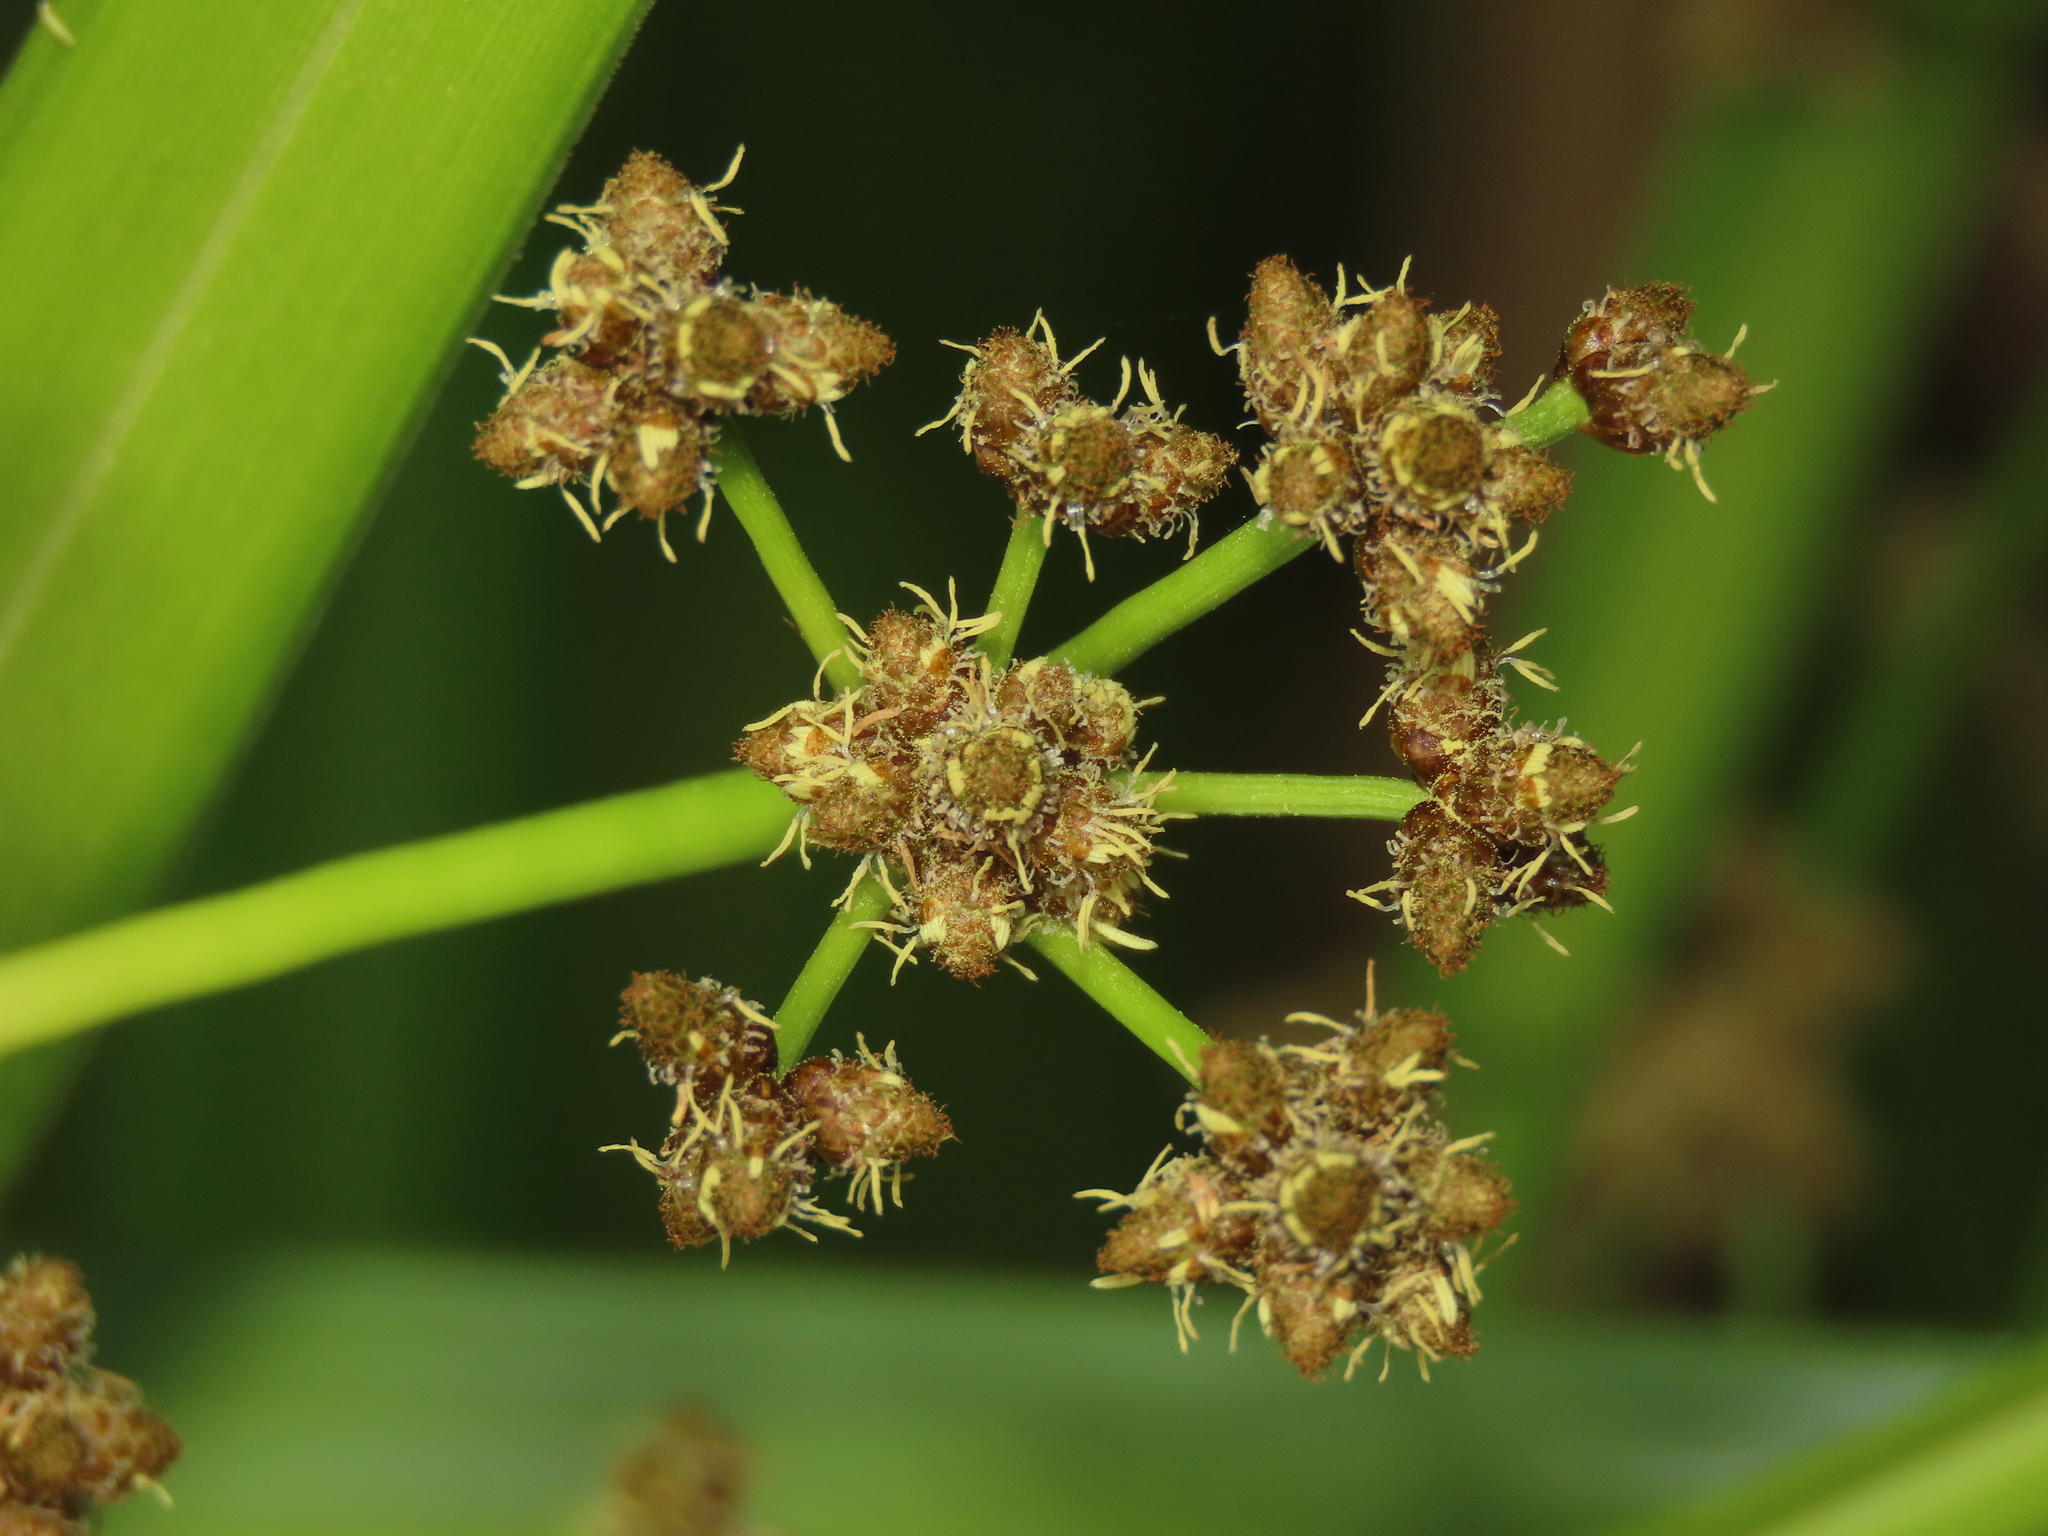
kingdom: Plantae
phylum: Tracheophyta
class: Liliopsida
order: Poales
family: Cyperaceae
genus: Scirpus
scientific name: Scirpus ternatanus
